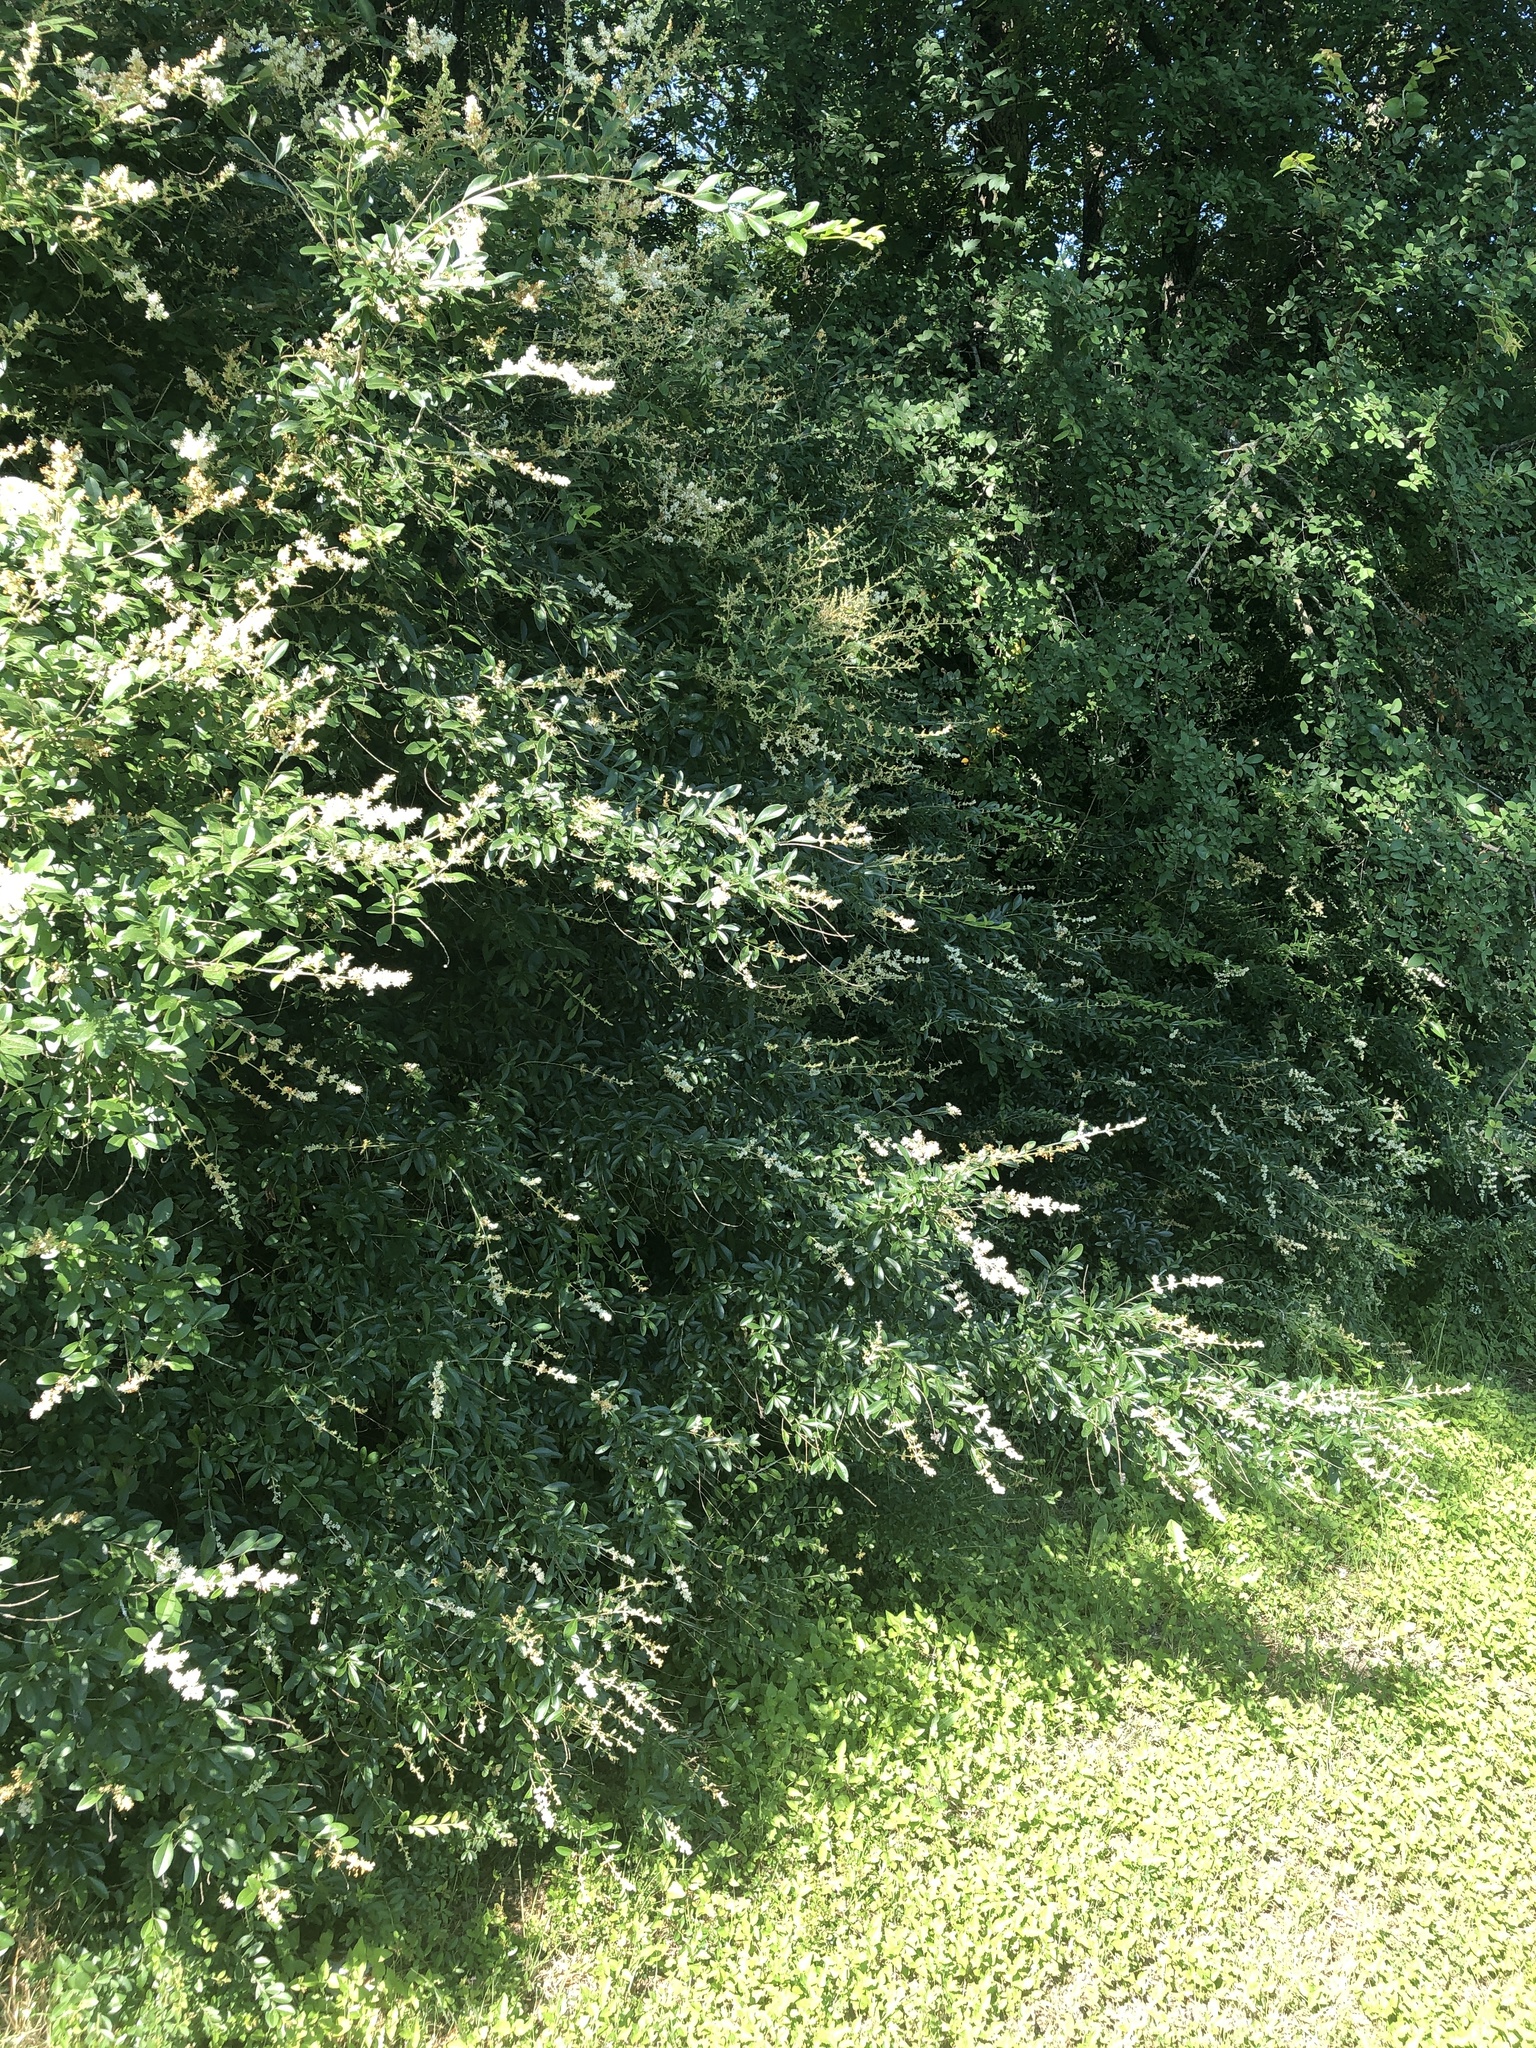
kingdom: Plantae
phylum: Tracheophyta
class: Magnoliopsida
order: Lamiales
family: Oleaceae
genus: Ligustrum
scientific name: Ligustrum quihoui
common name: Waxyleaf privet
